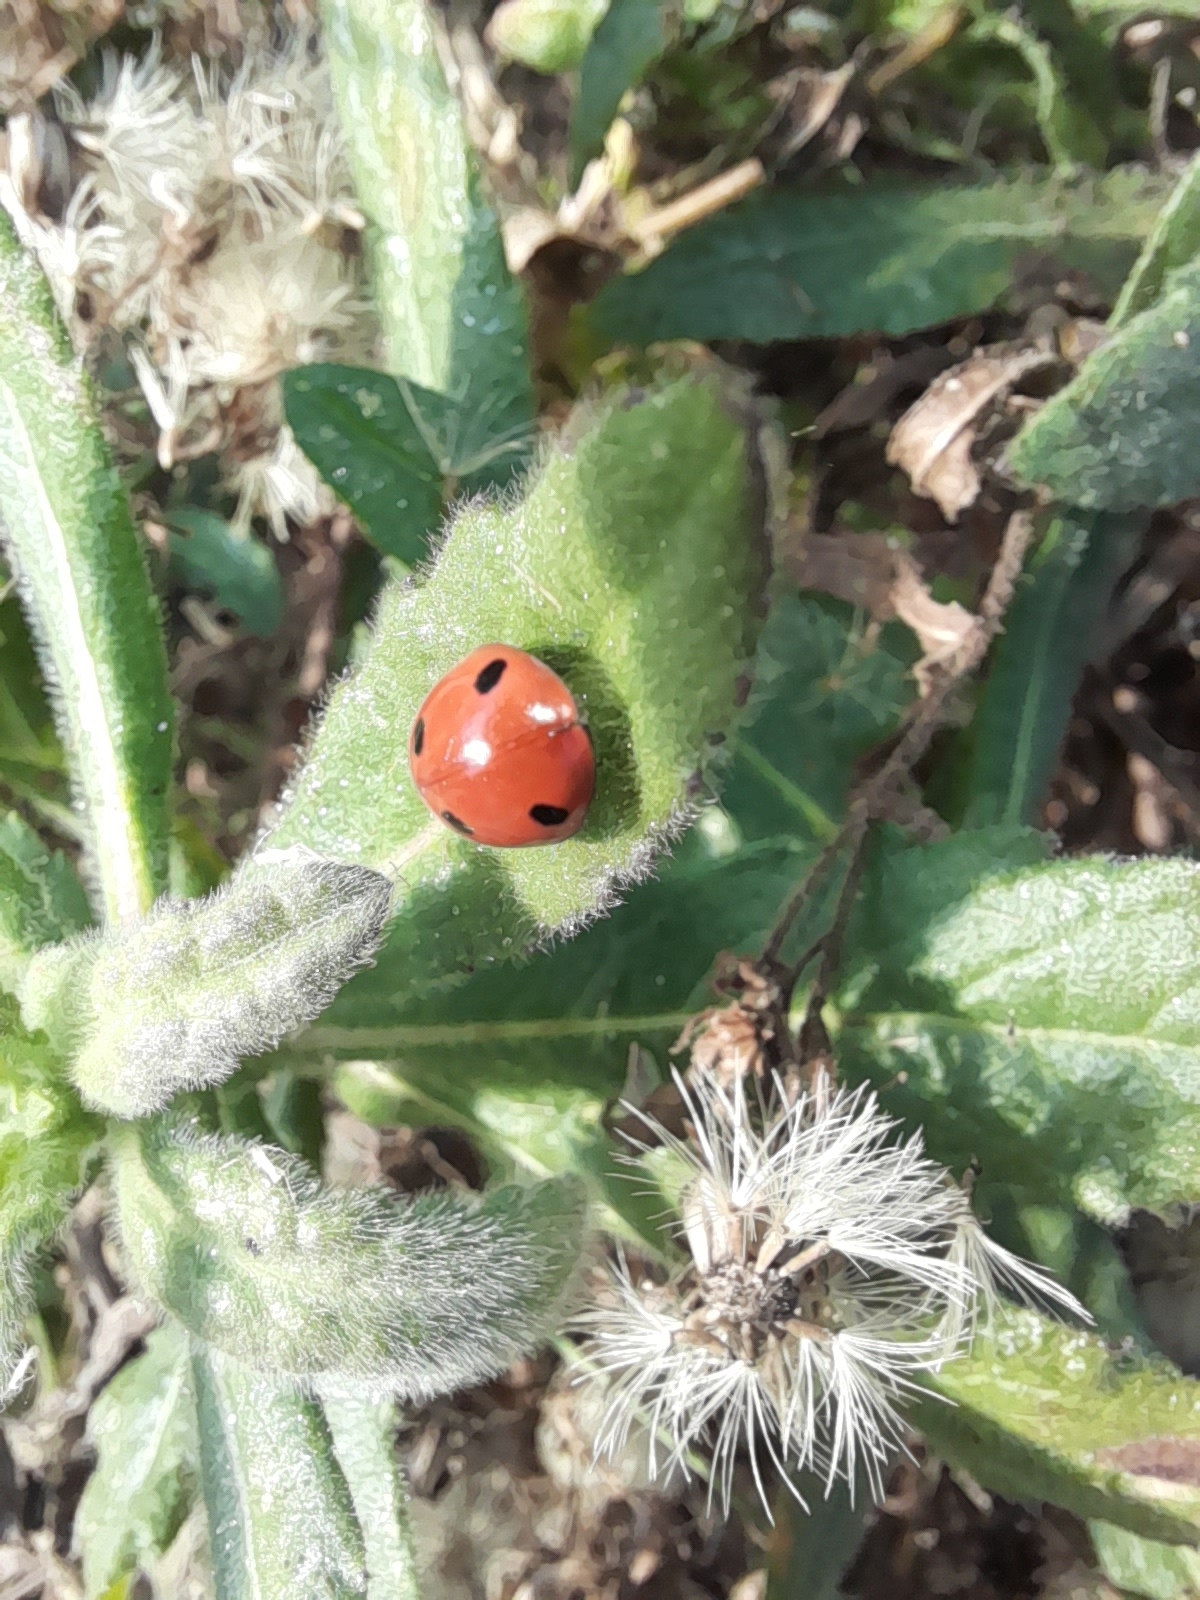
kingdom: Animalia
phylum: Arthropoda
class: Insecta
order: Coleoptera
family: Coccinellidae
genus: Coccinella
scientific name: Coccinella septempunctata
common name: Sevenspotted lady beetle
